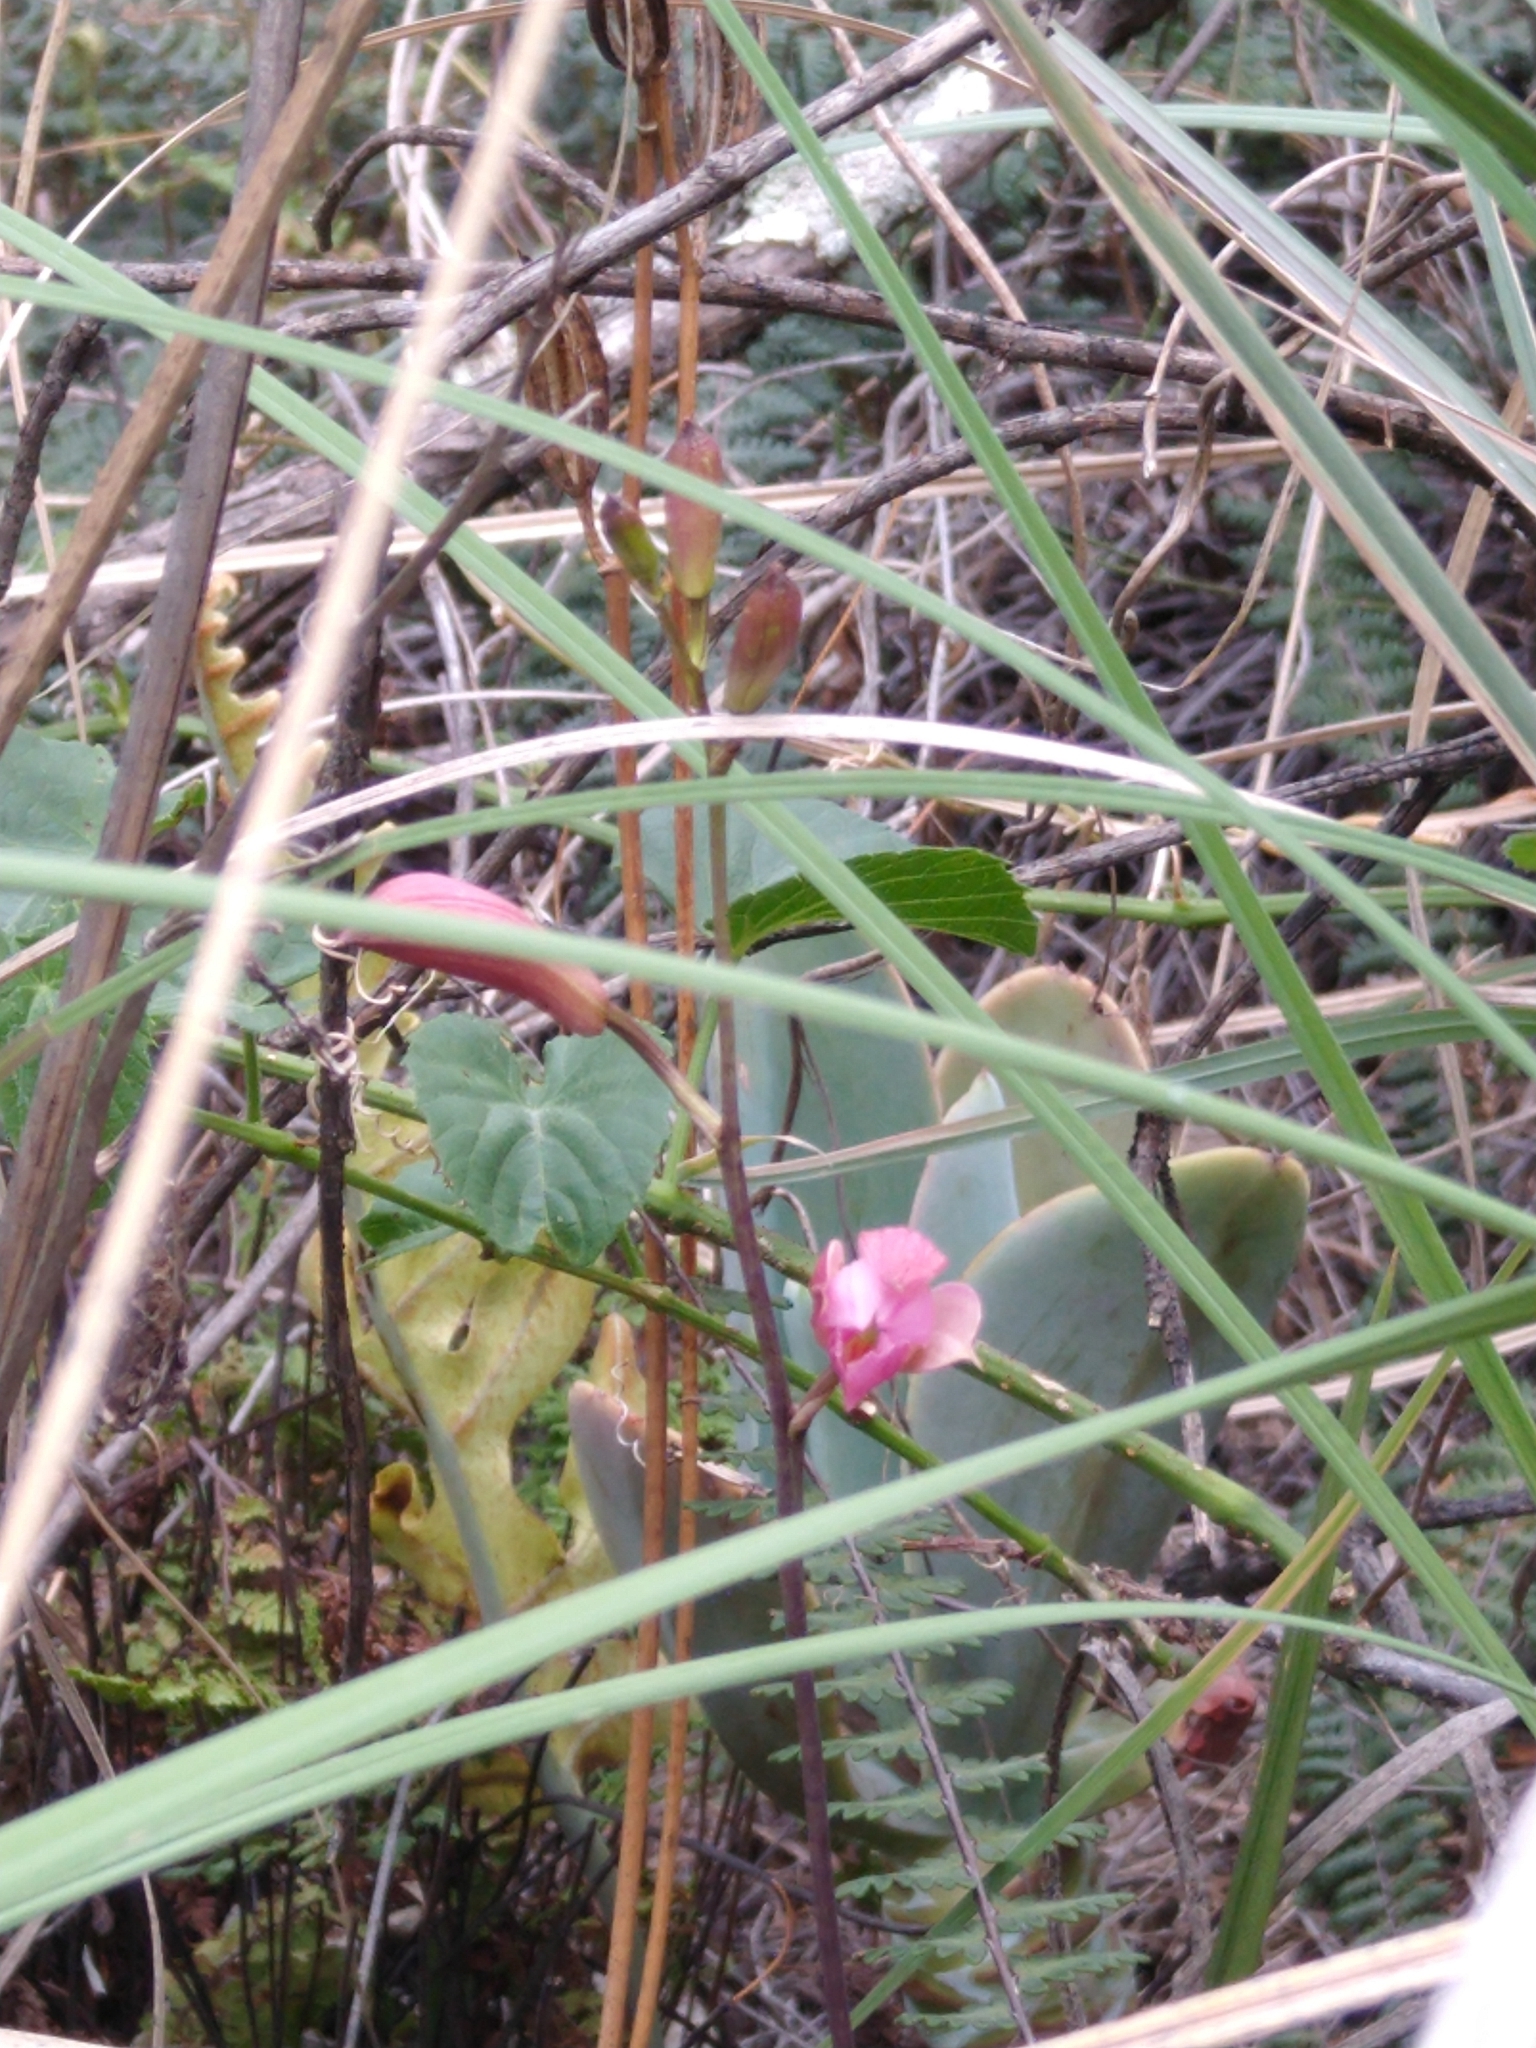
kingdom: Plantae
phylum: Tracheophyta
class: Liliopsida
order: Asparagales
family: Orchidaceae
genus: Bletia
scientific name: Bletia urbana
